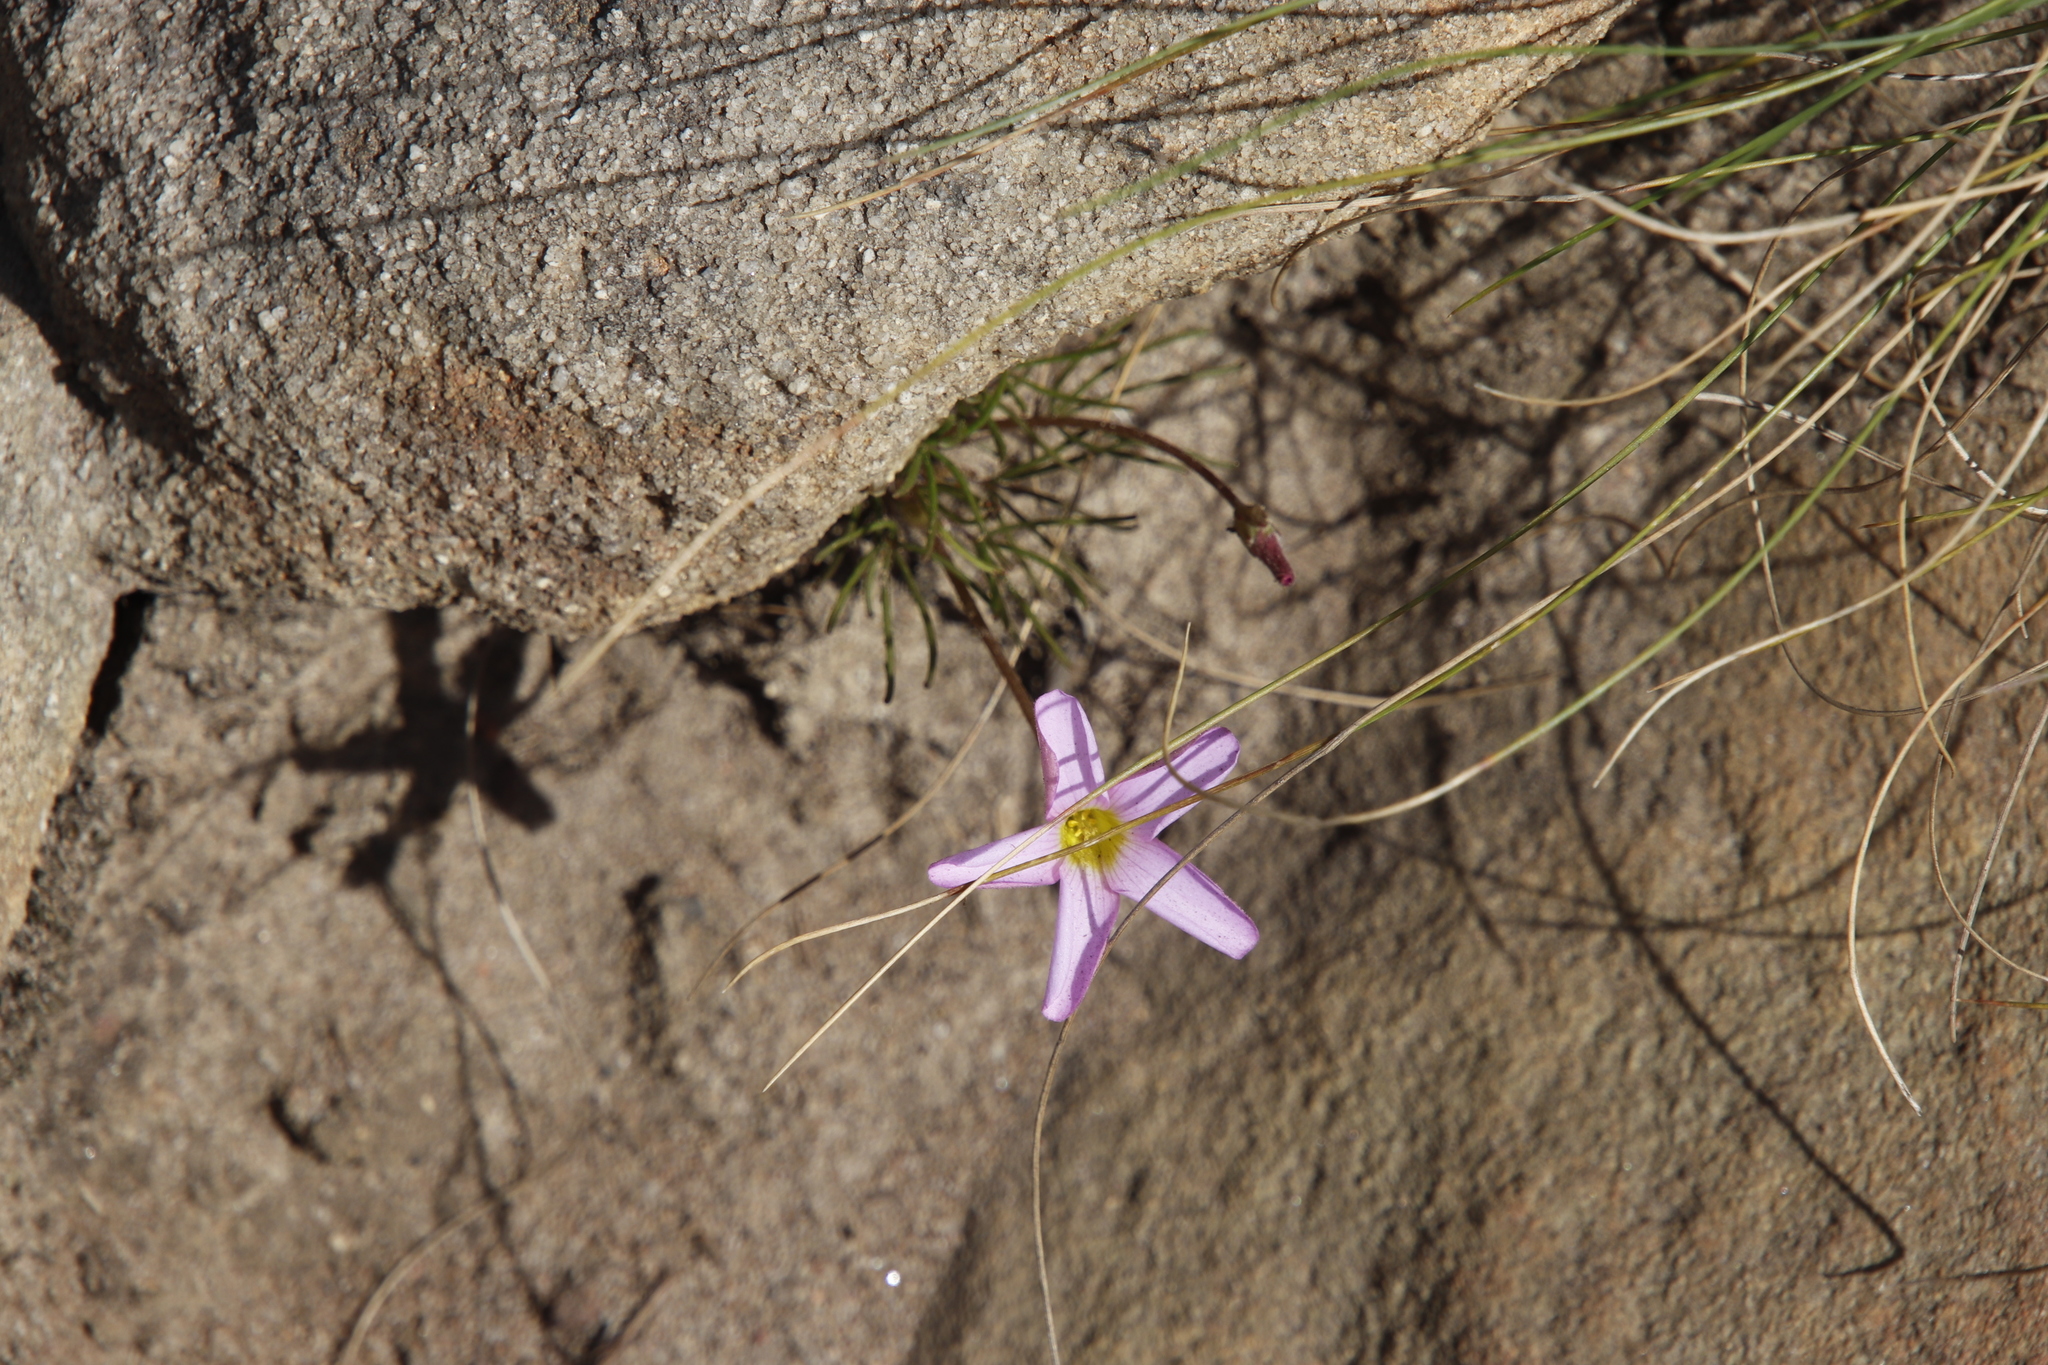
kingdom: Plantae
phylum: Tracheophyta
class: Magnoliopsida
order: Oxalidales
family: Oxalidaceae
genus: Oxalis
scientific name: Oxalis polyphylla
